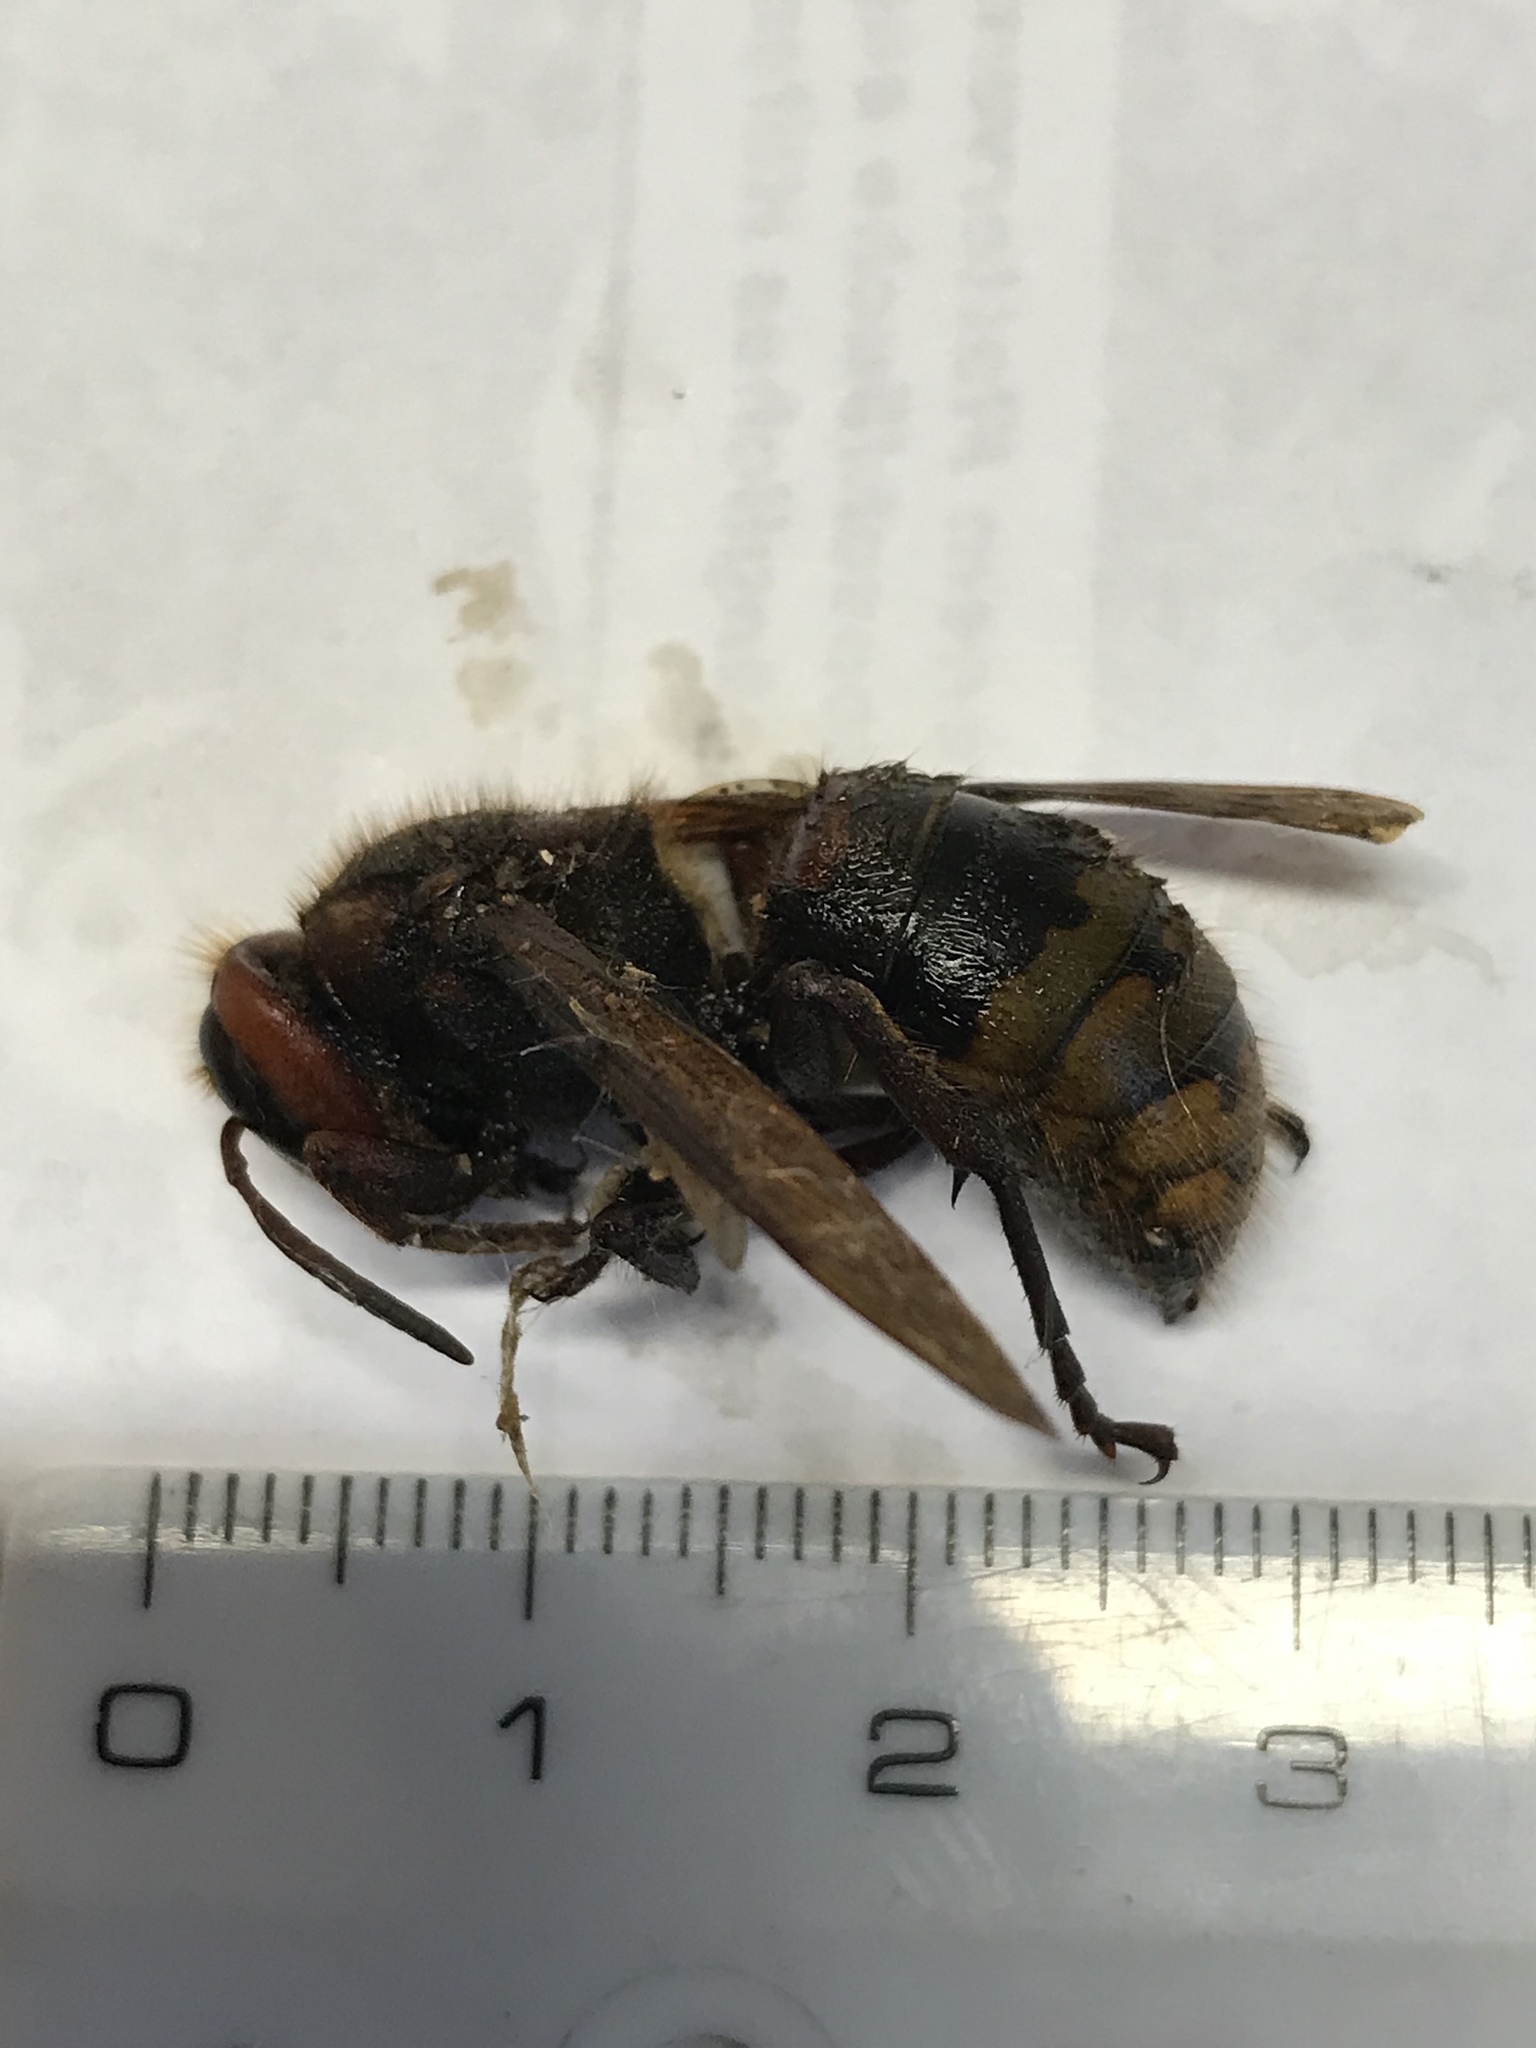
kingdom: Animalia
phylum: Arthropoda
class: Insecta
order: Hymenoptera
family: Vespidae
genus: Vespa
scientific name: Vespa crabro
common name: Hornet
